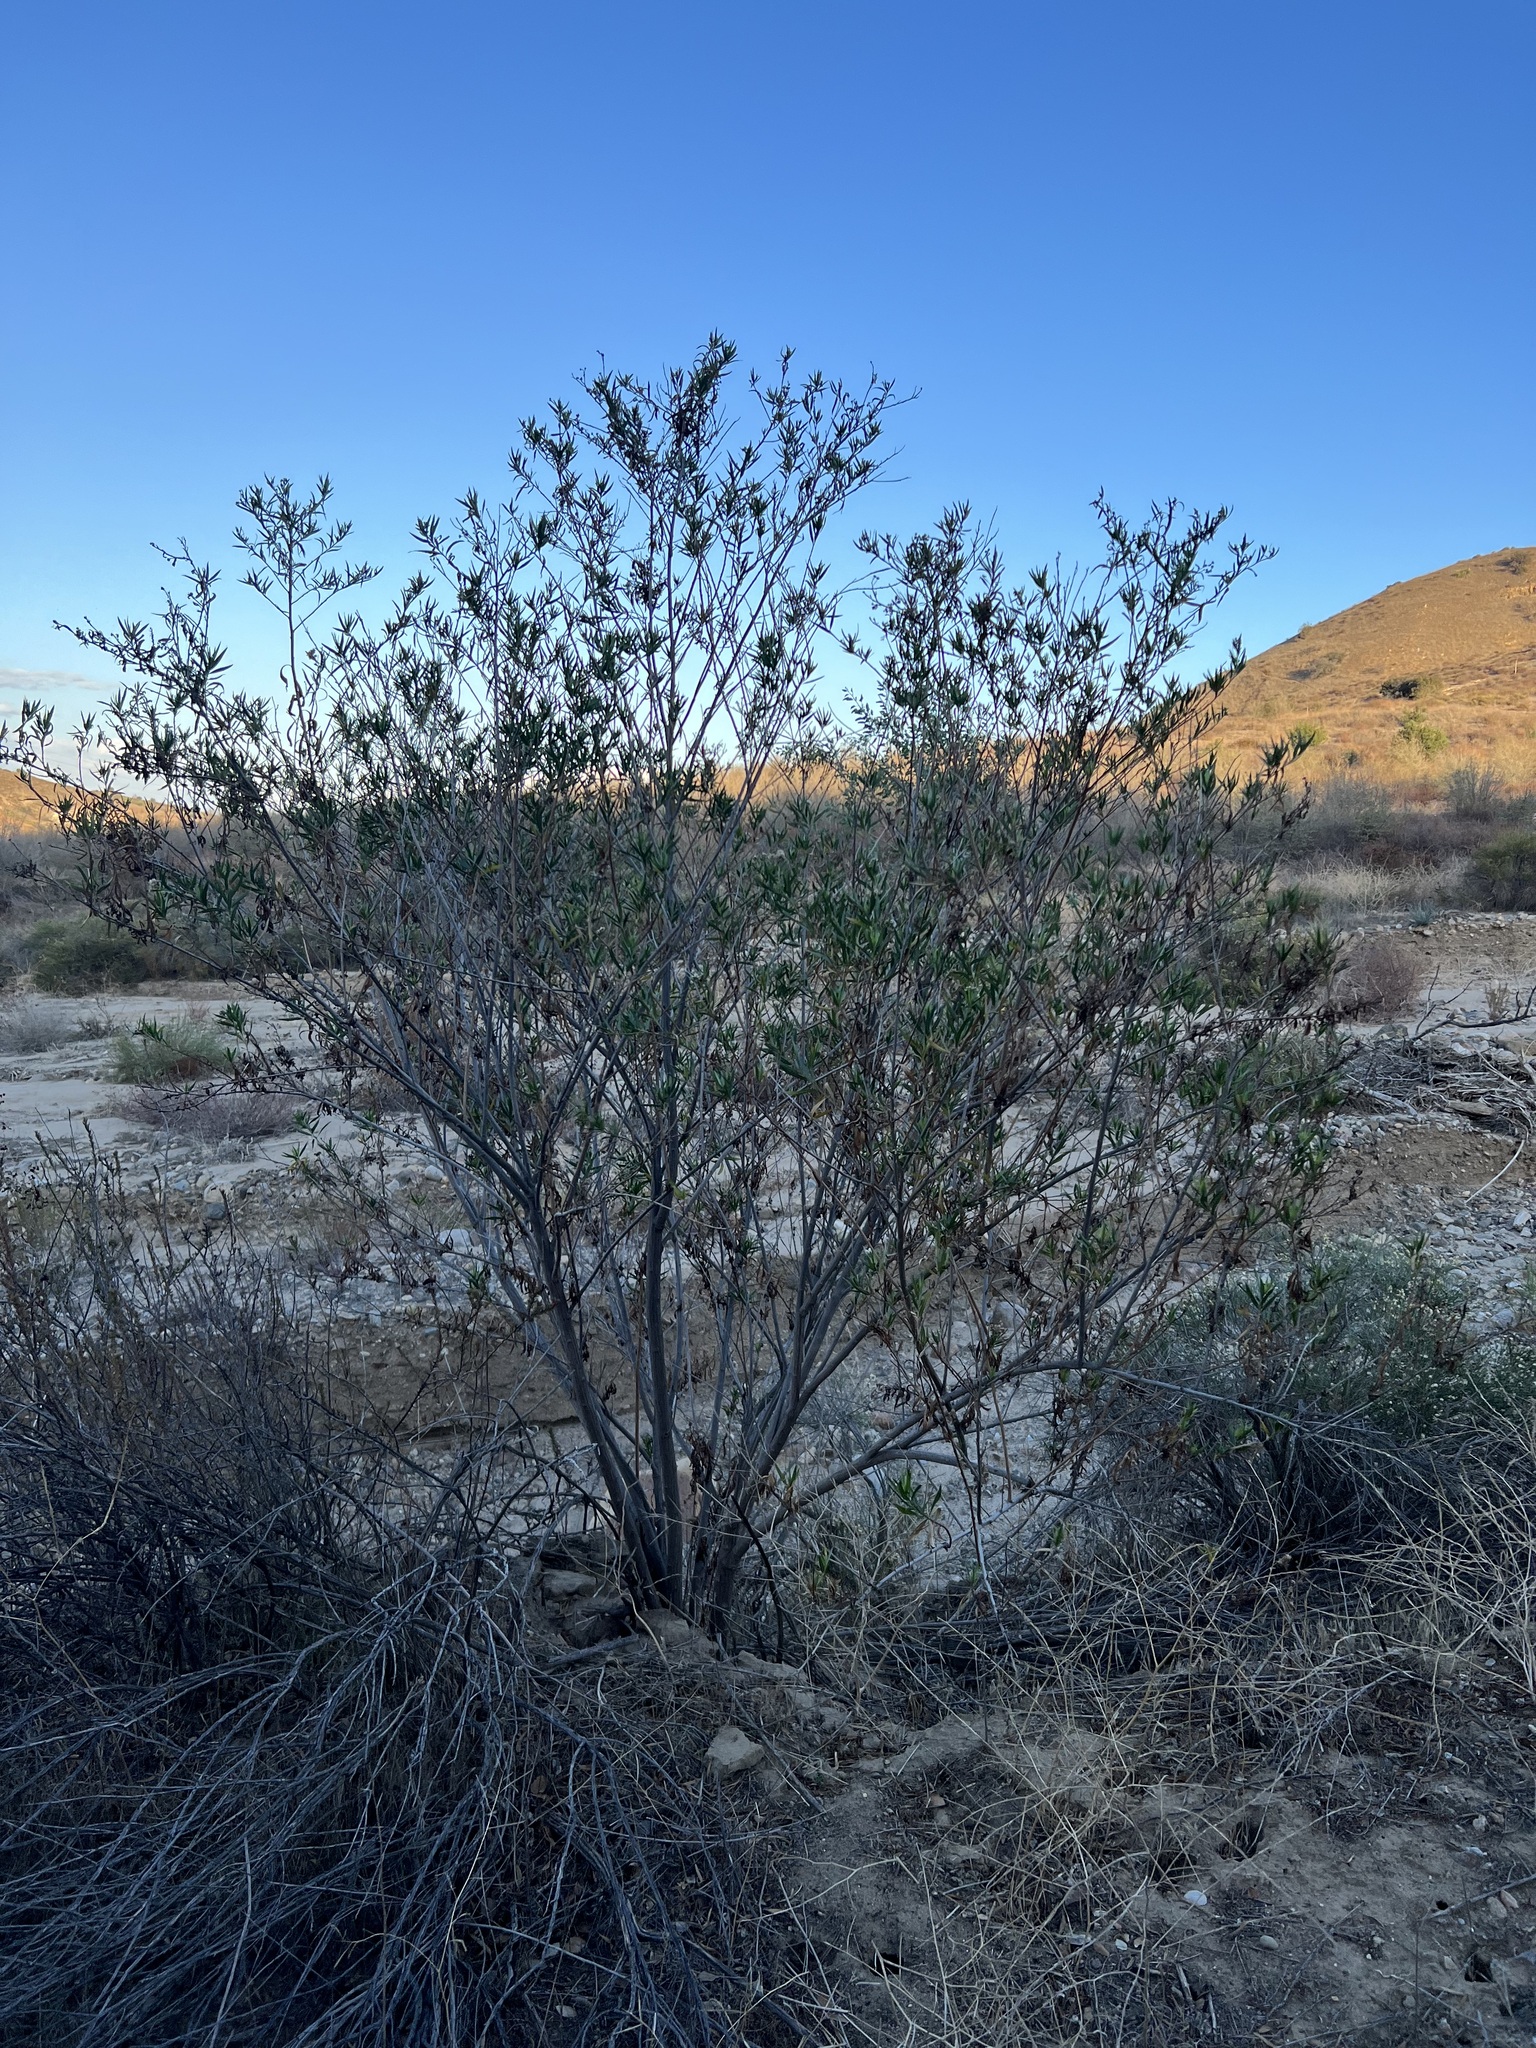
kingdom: Plantae
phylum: Tracheophyta
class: Magnoliopsida
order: Asterales
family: Asteraceae
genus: Baccharis
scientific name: Baccharis salicifolia
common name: Sticky baccharis
